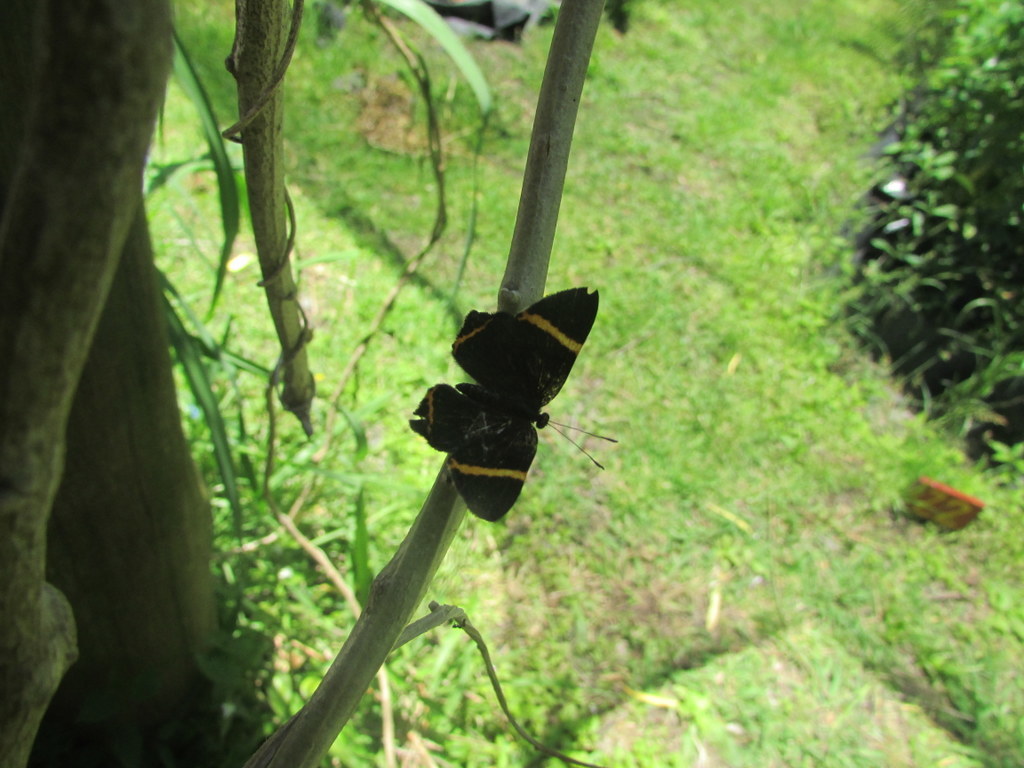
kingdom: Animalia
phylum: Arthropoda
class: Insecta
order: Lepidoptera
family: Riodinidae
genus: Riodina
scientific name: Riodina lysippoides
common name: Little dancer metalmark
